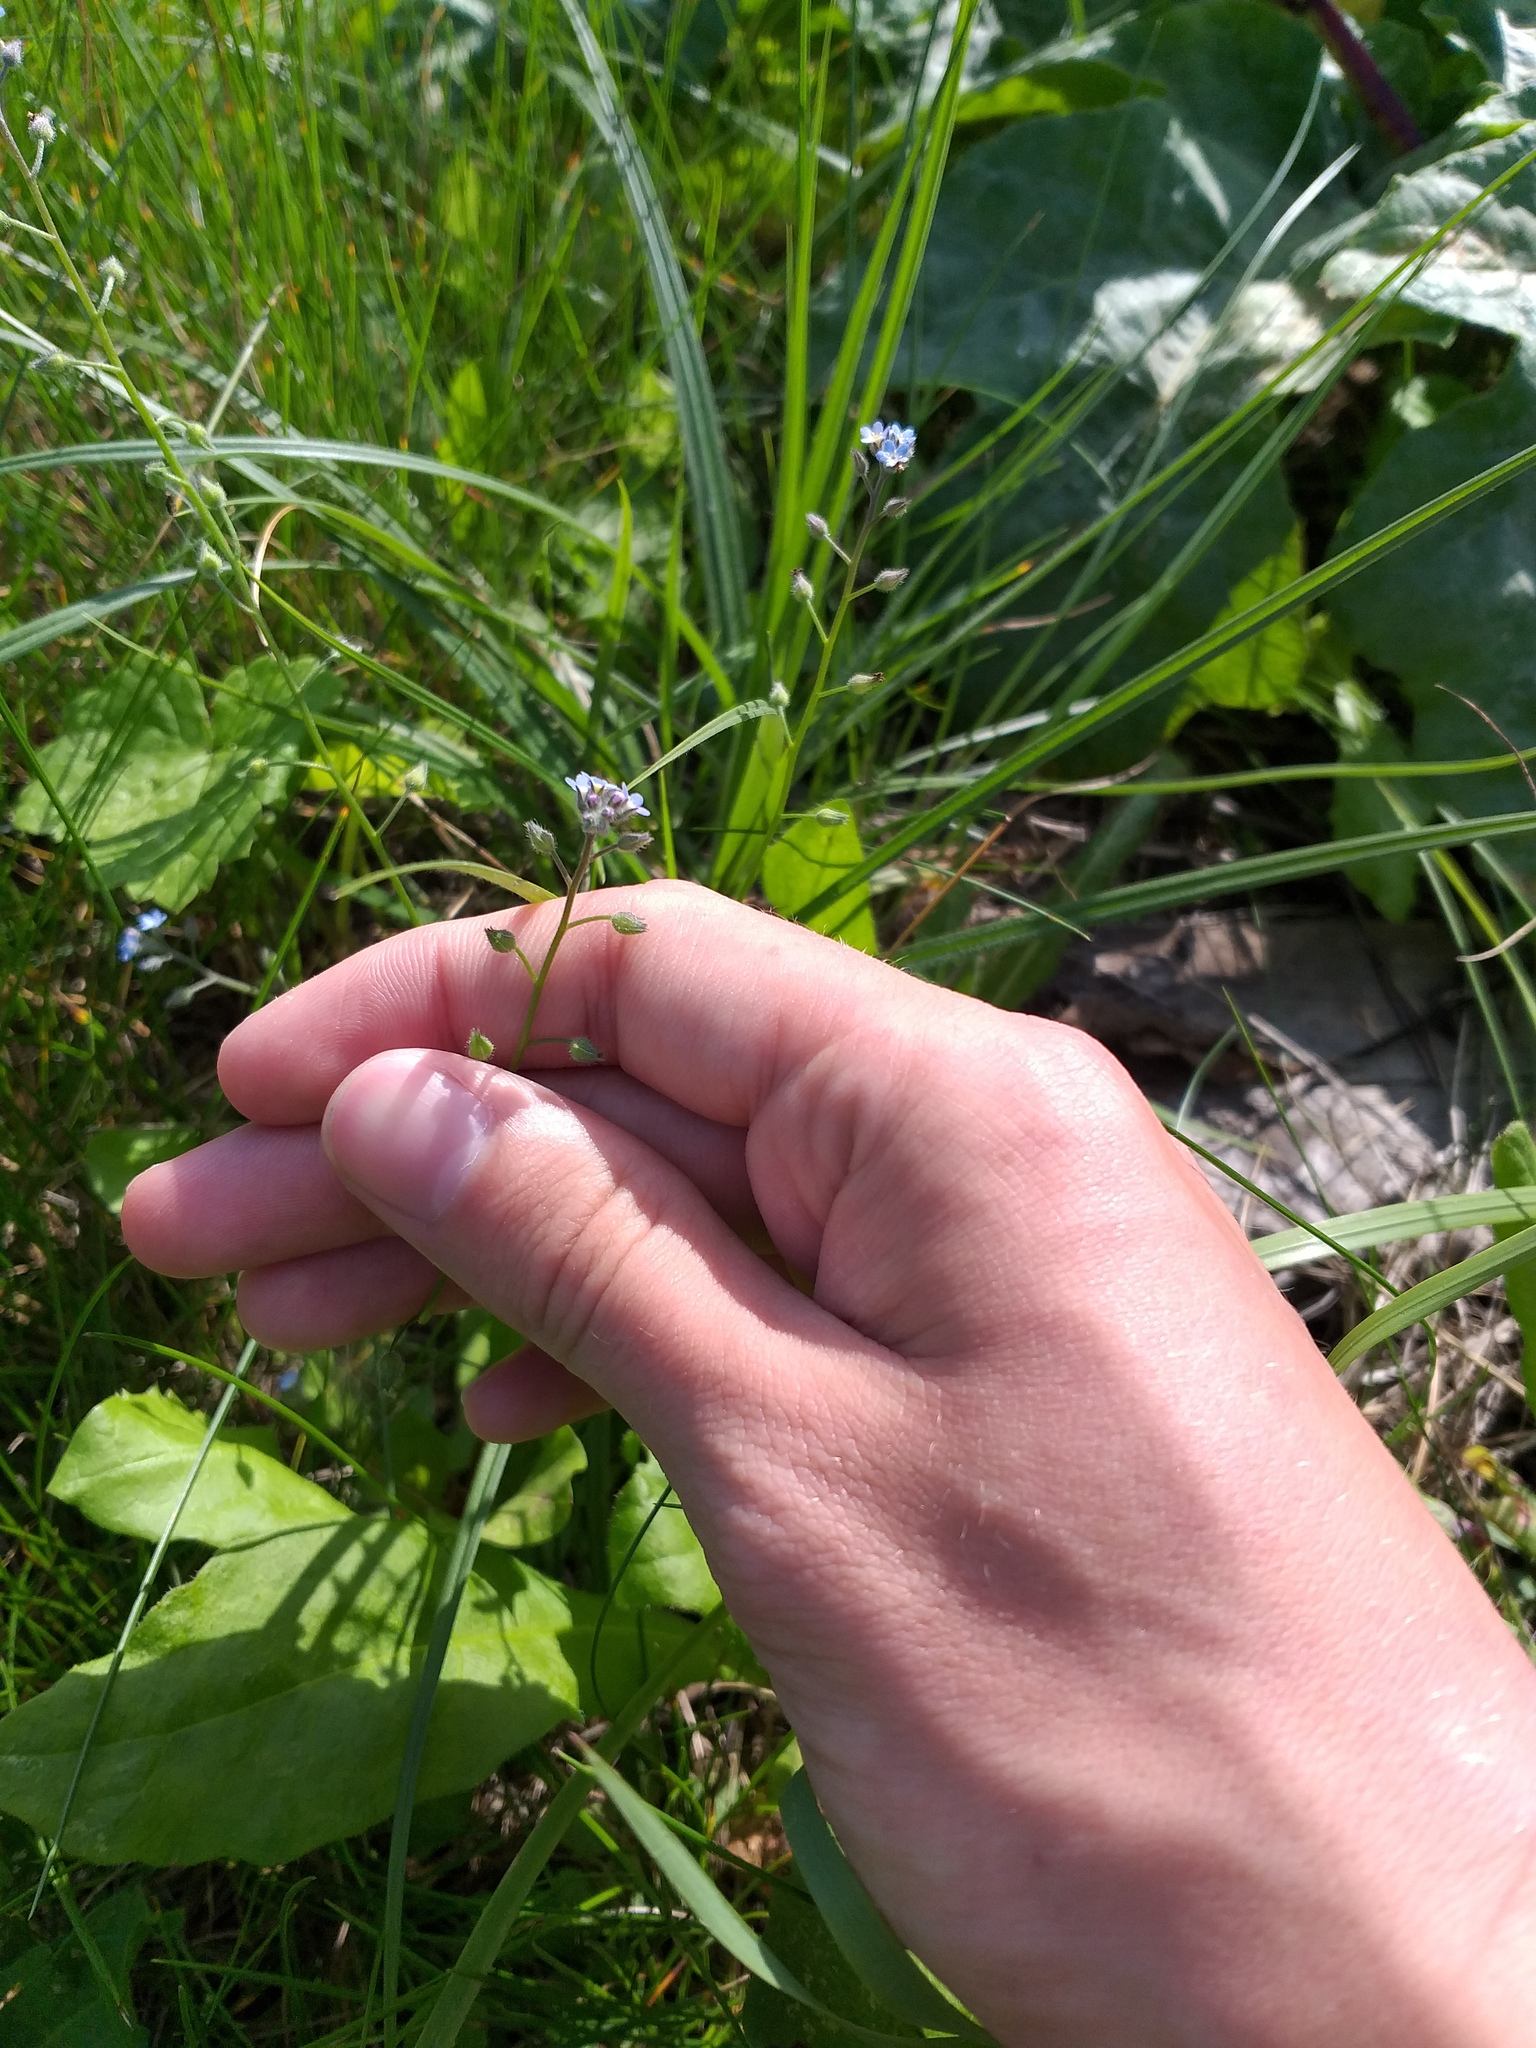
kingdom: Plantae
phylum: Tracheophyta
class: Magnoliopsida
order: Boraginales
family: Boraginaceae
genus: Myosotis
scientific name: Myosotis arvensis
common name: Field forget-me-not
